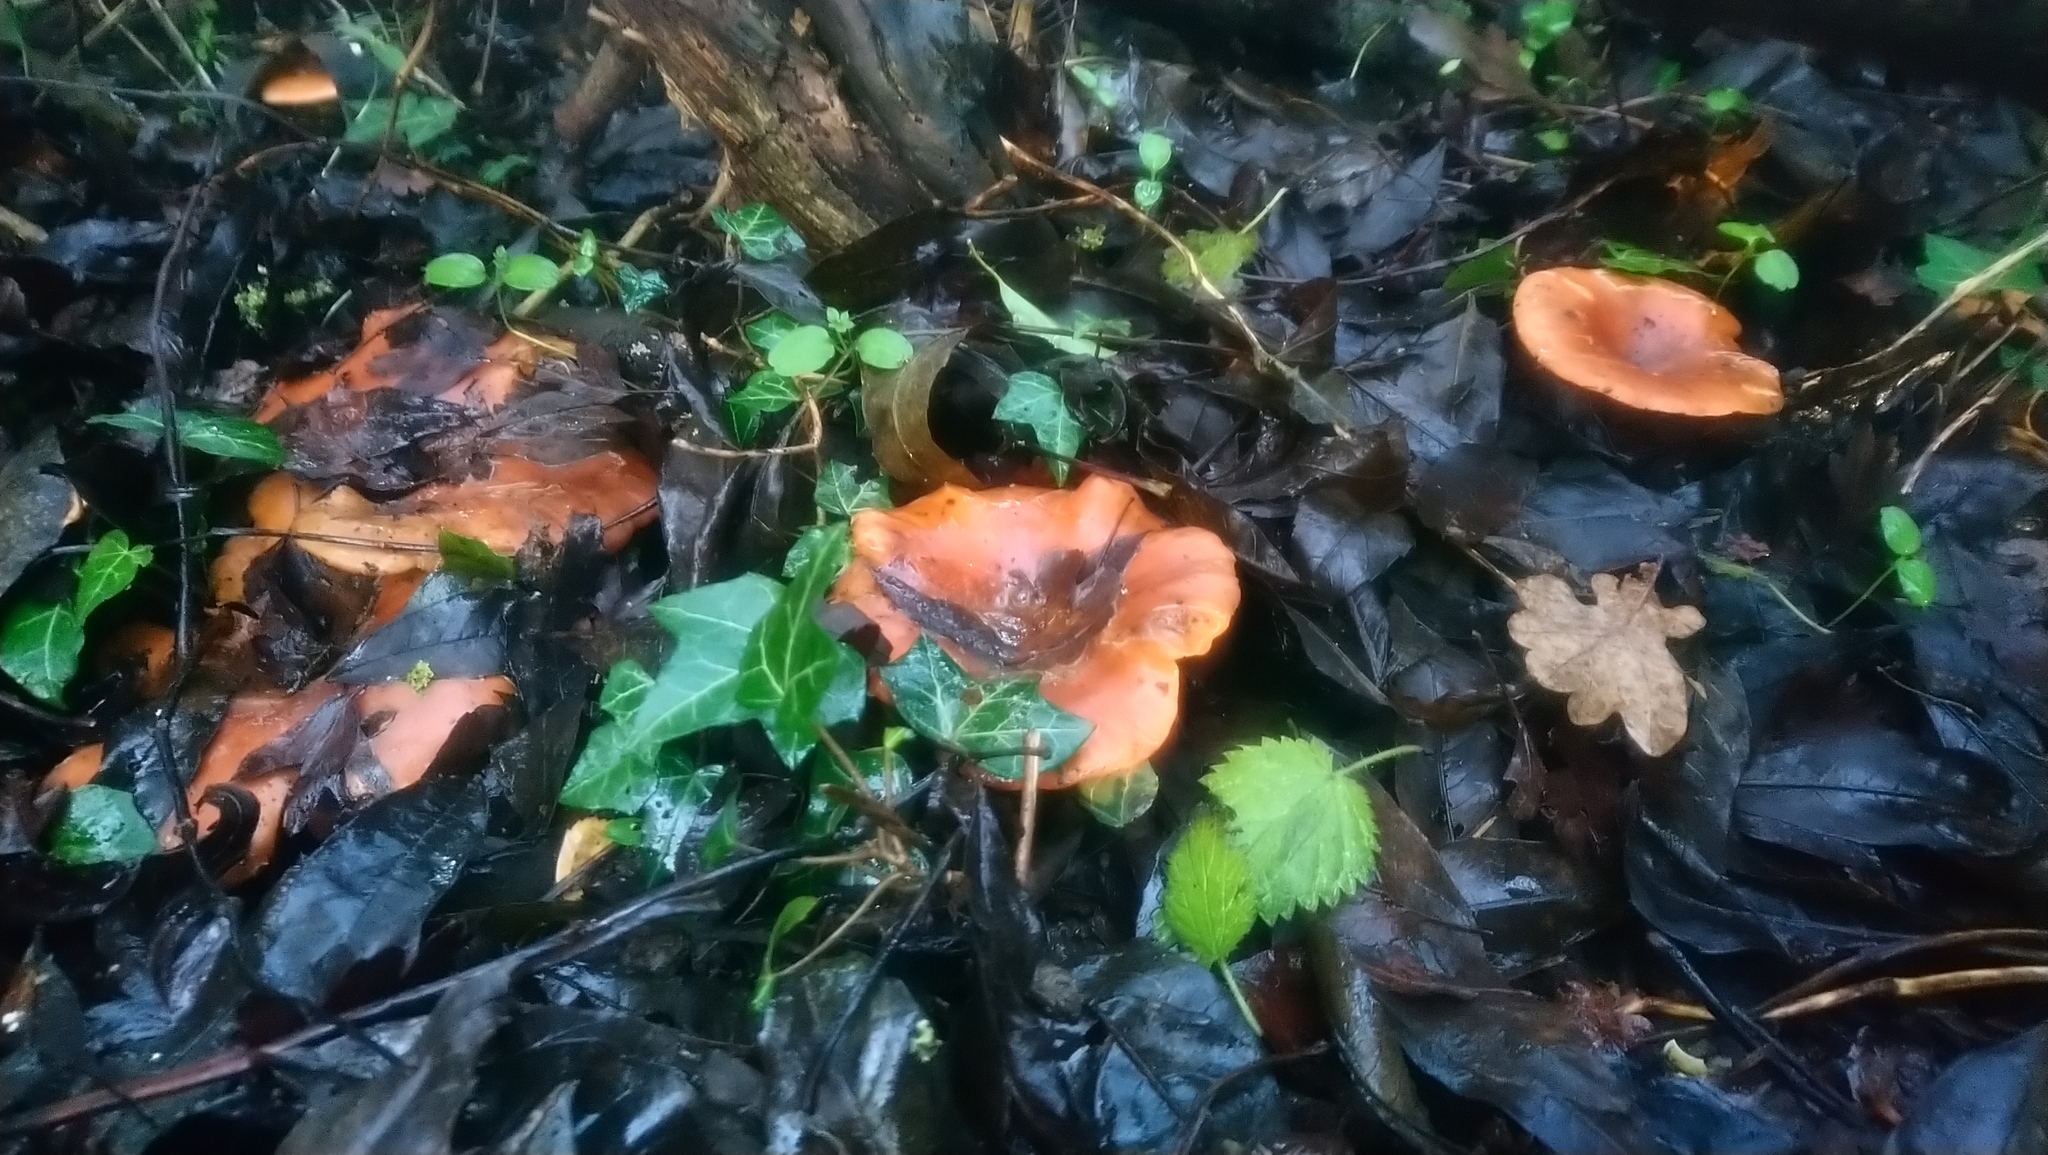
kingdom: Fungi
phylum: Basidiomycota
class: Agaricomycetes
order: Agaricales
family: Tricholomataceae
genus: Paralepista
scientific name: Paralepista flaccida
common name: Tawny funnel cap
